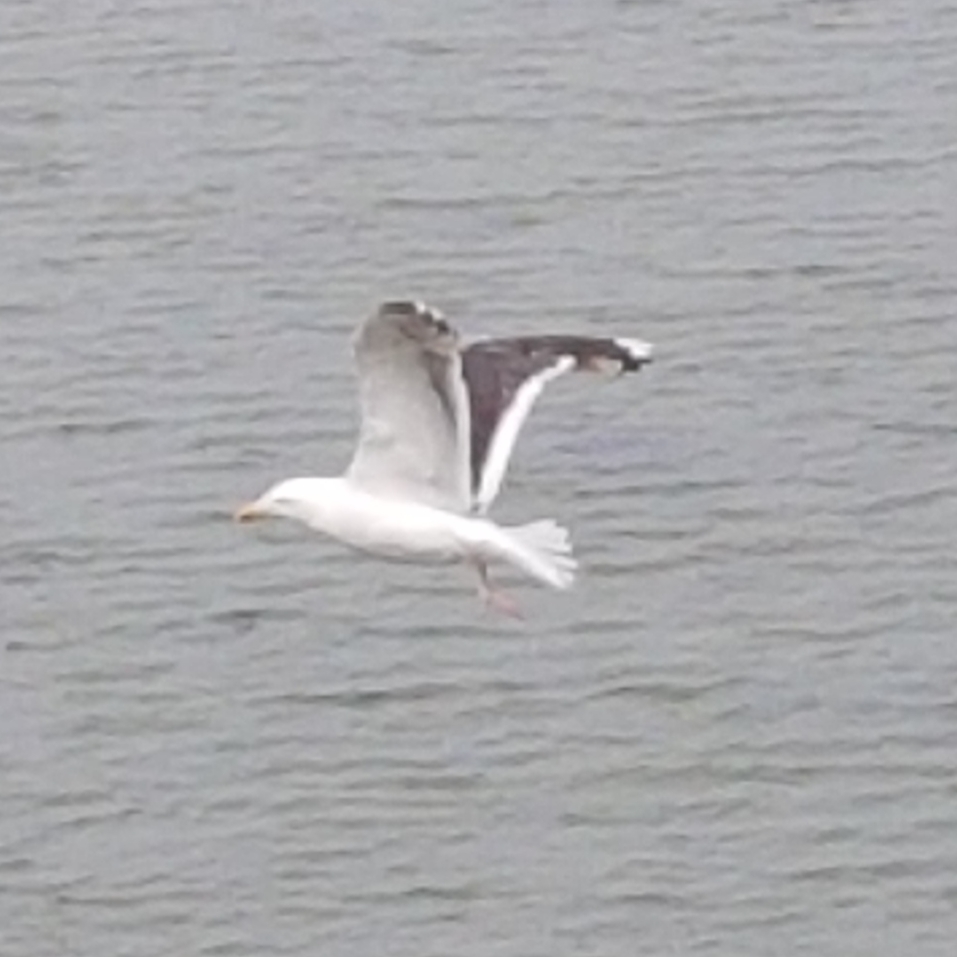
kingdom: Animalia
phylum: Chordata
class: Aves
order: Charadriiformes
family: Laridae
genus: Larus
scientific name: Larus marinus
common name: Great black-backed gull
